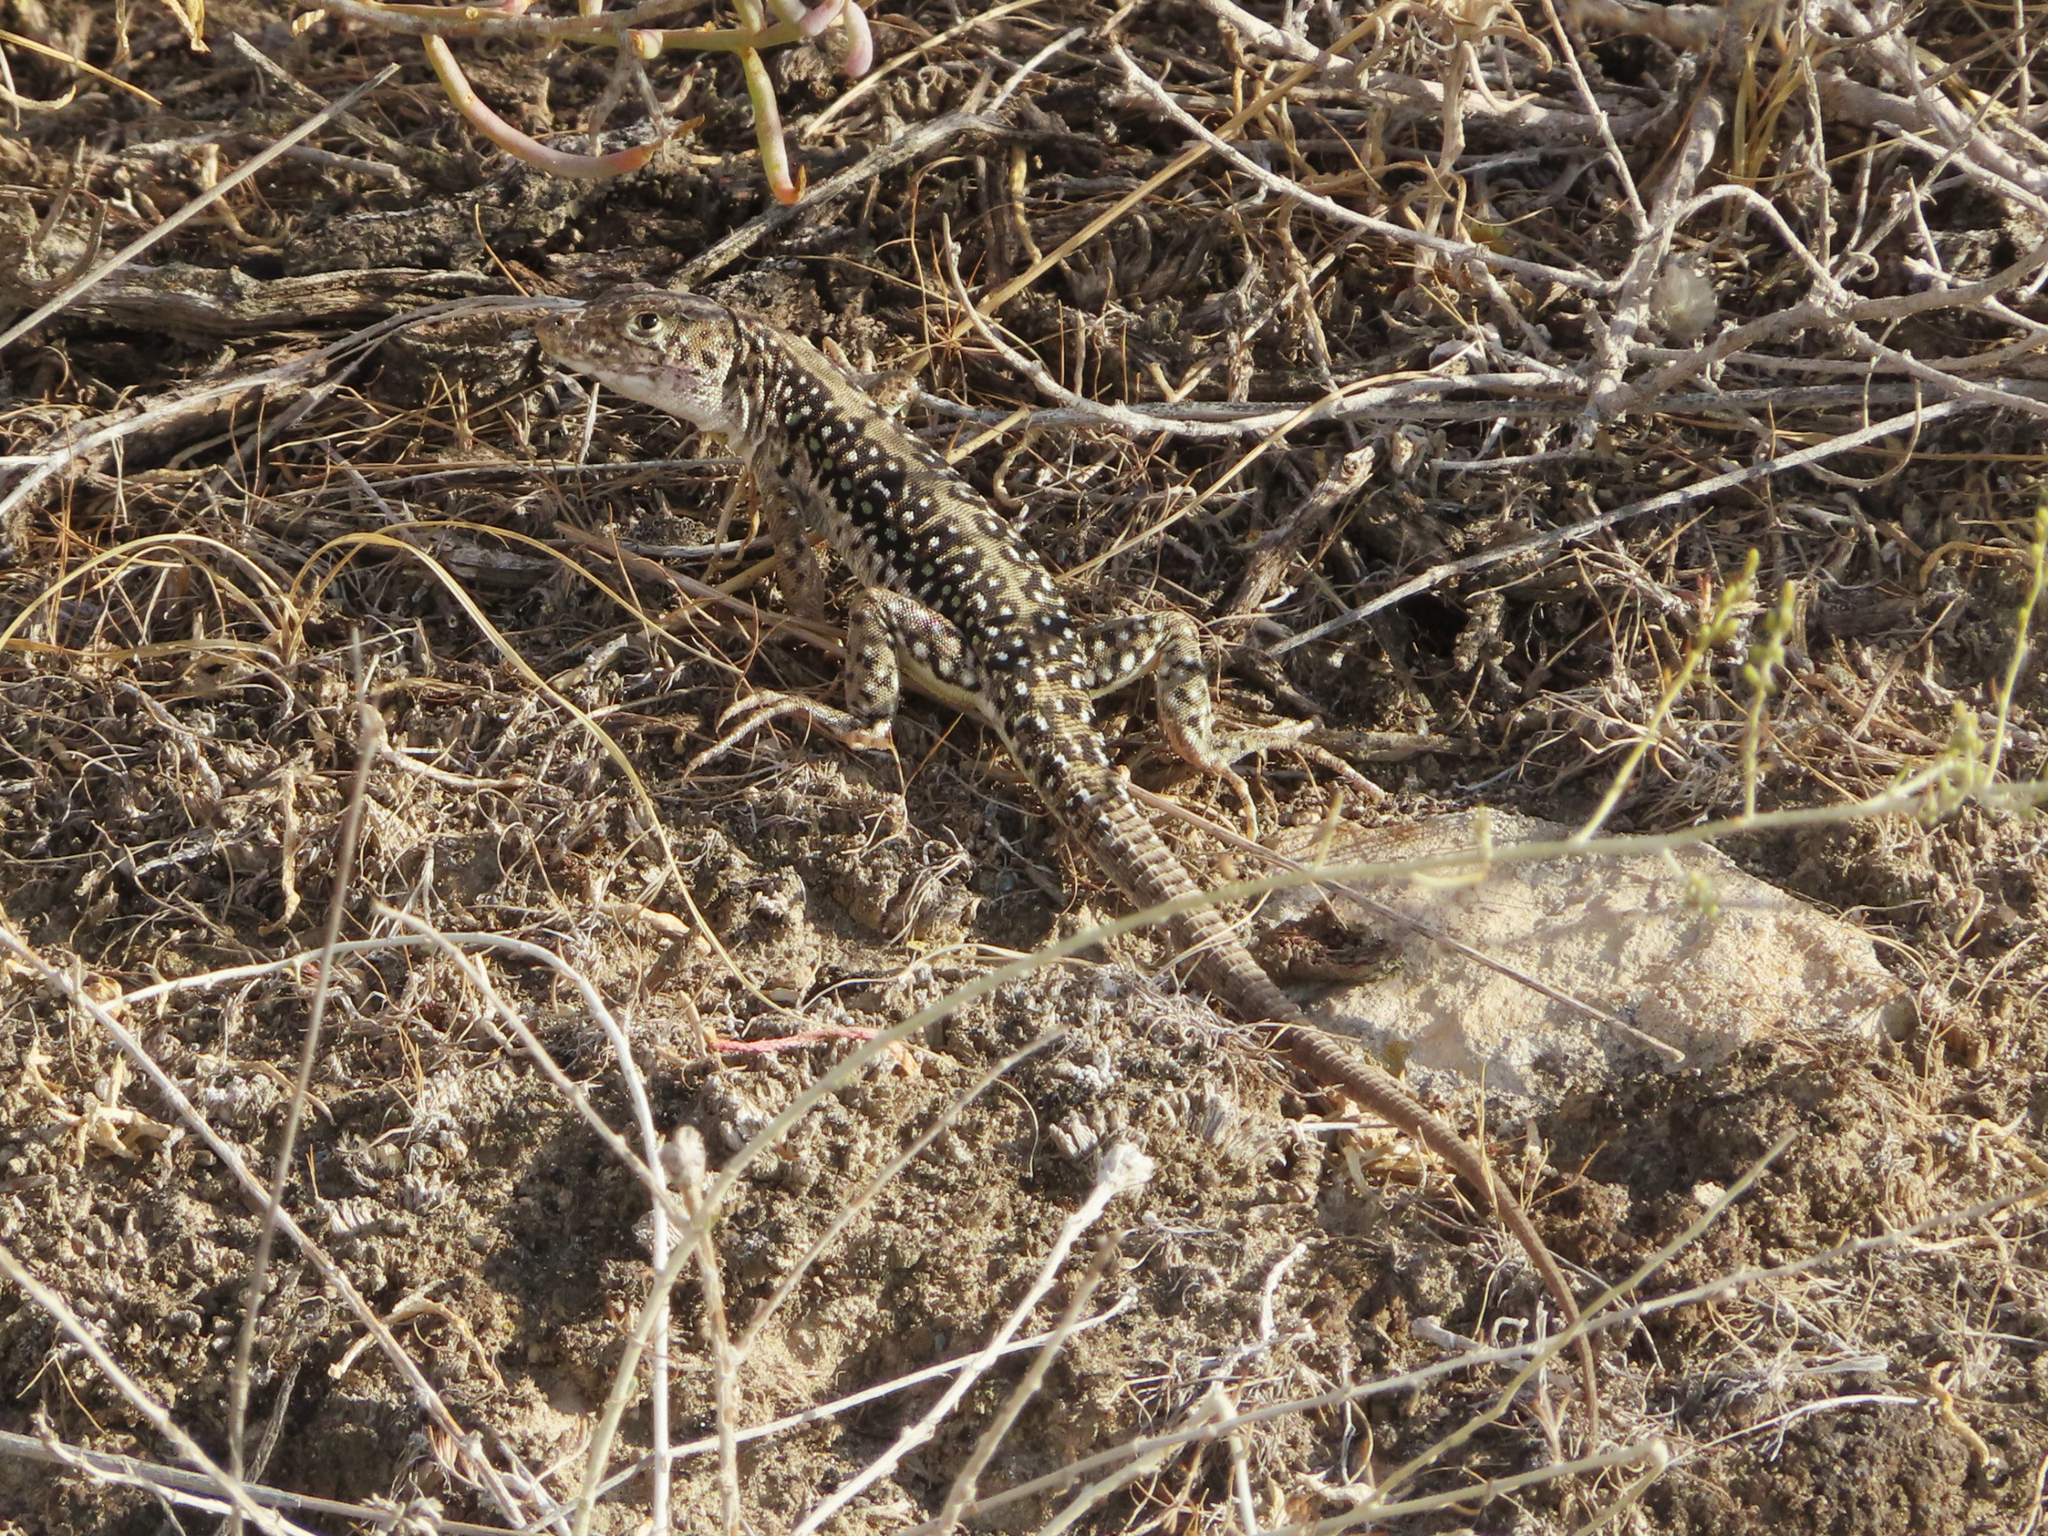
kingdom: Animalia
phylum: Chordata
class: Squamata
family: Lacertidae
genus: Eremias
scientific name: Eremias strauchi
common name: Strauch's racerunner
